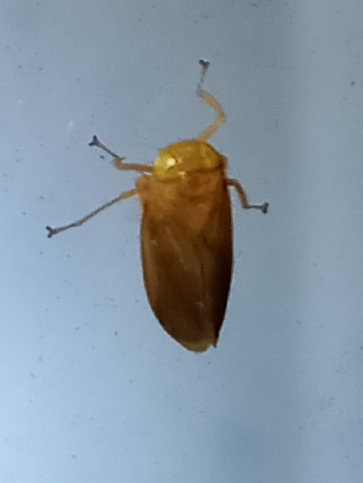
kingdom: Animalia
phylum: Arthropoda
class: Insecta
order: Hemiptera
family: Cicadellidae
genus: Jikradia
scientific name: Jikradia olitoria
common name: Coppery leafhopper
